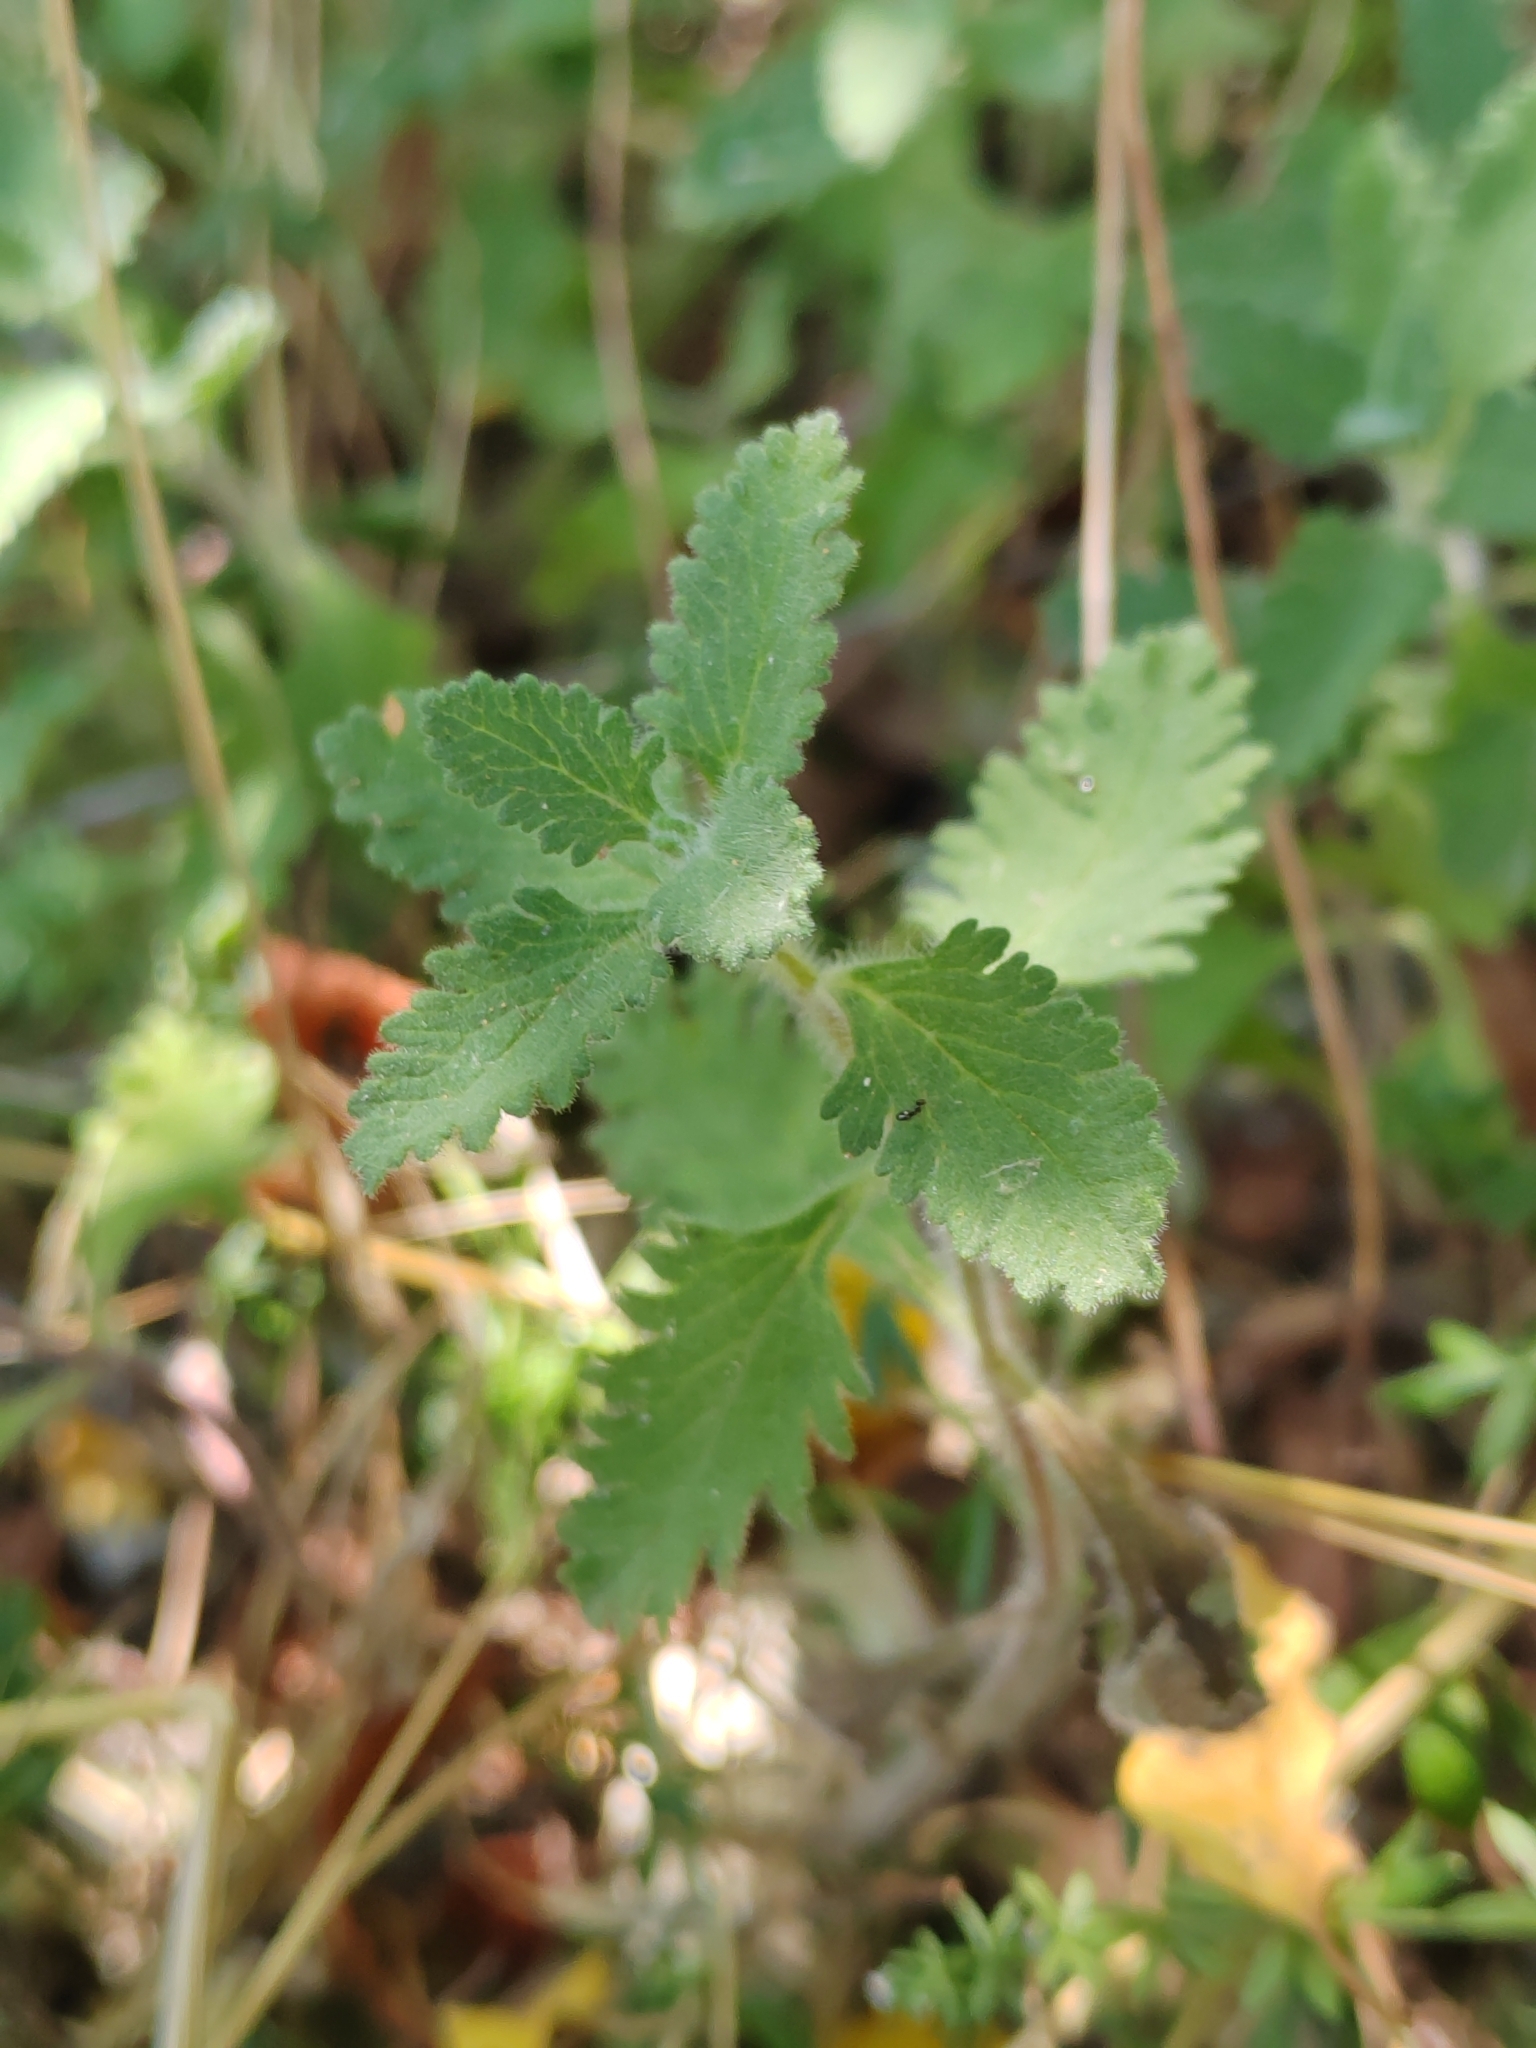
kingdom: Plantae
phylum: Tracheophyta
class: Magnoliopsida
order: Lamiales
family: Lamiaceae
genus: Teucrium
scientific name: Teucrium chamaedrys
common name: Wall germander
